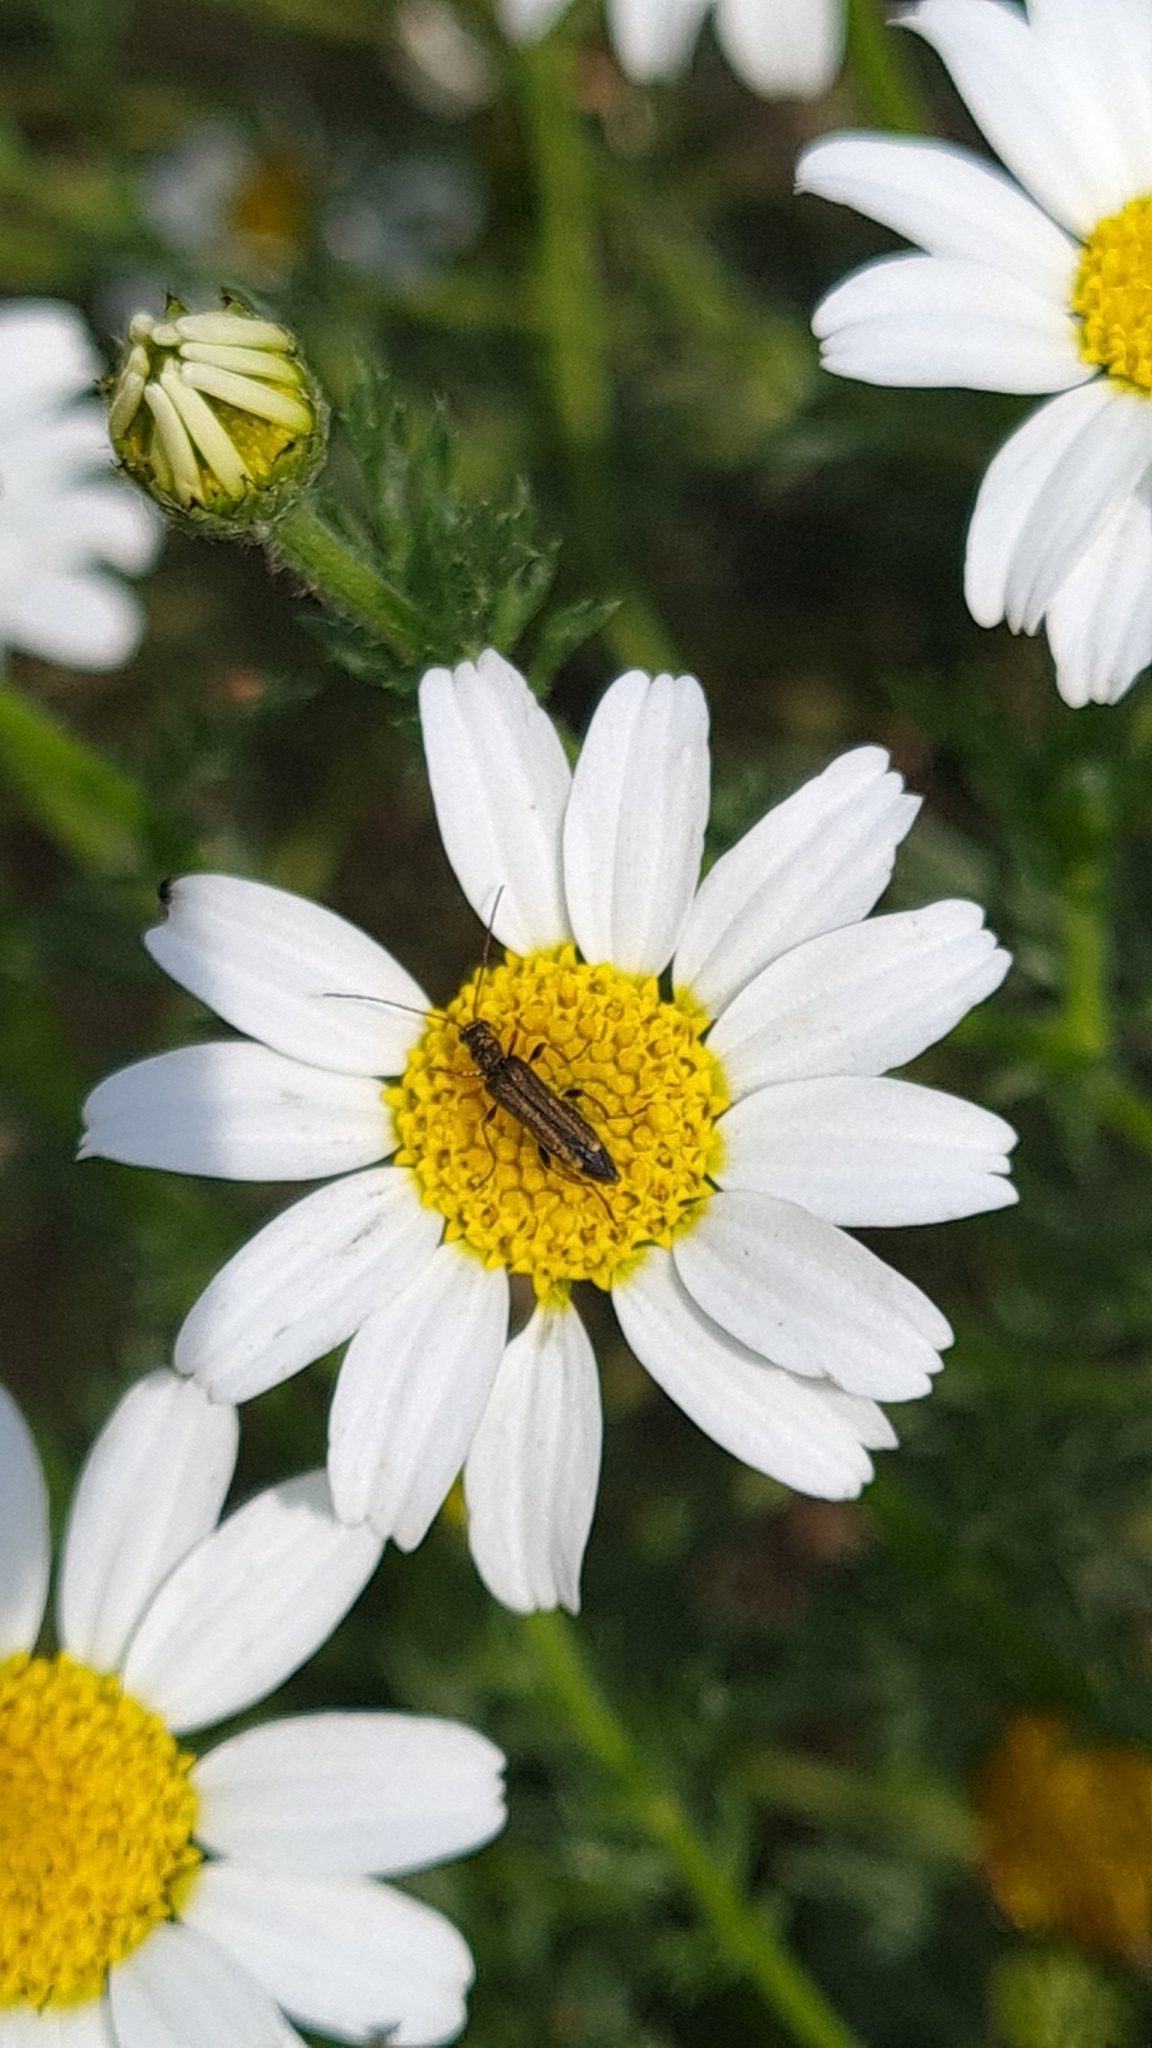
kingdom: Animalia
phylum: Arthropoda
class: Insecta
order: Coleoptera
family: Oedemeridae
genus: Oedemera
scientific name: Oedemera barbara
